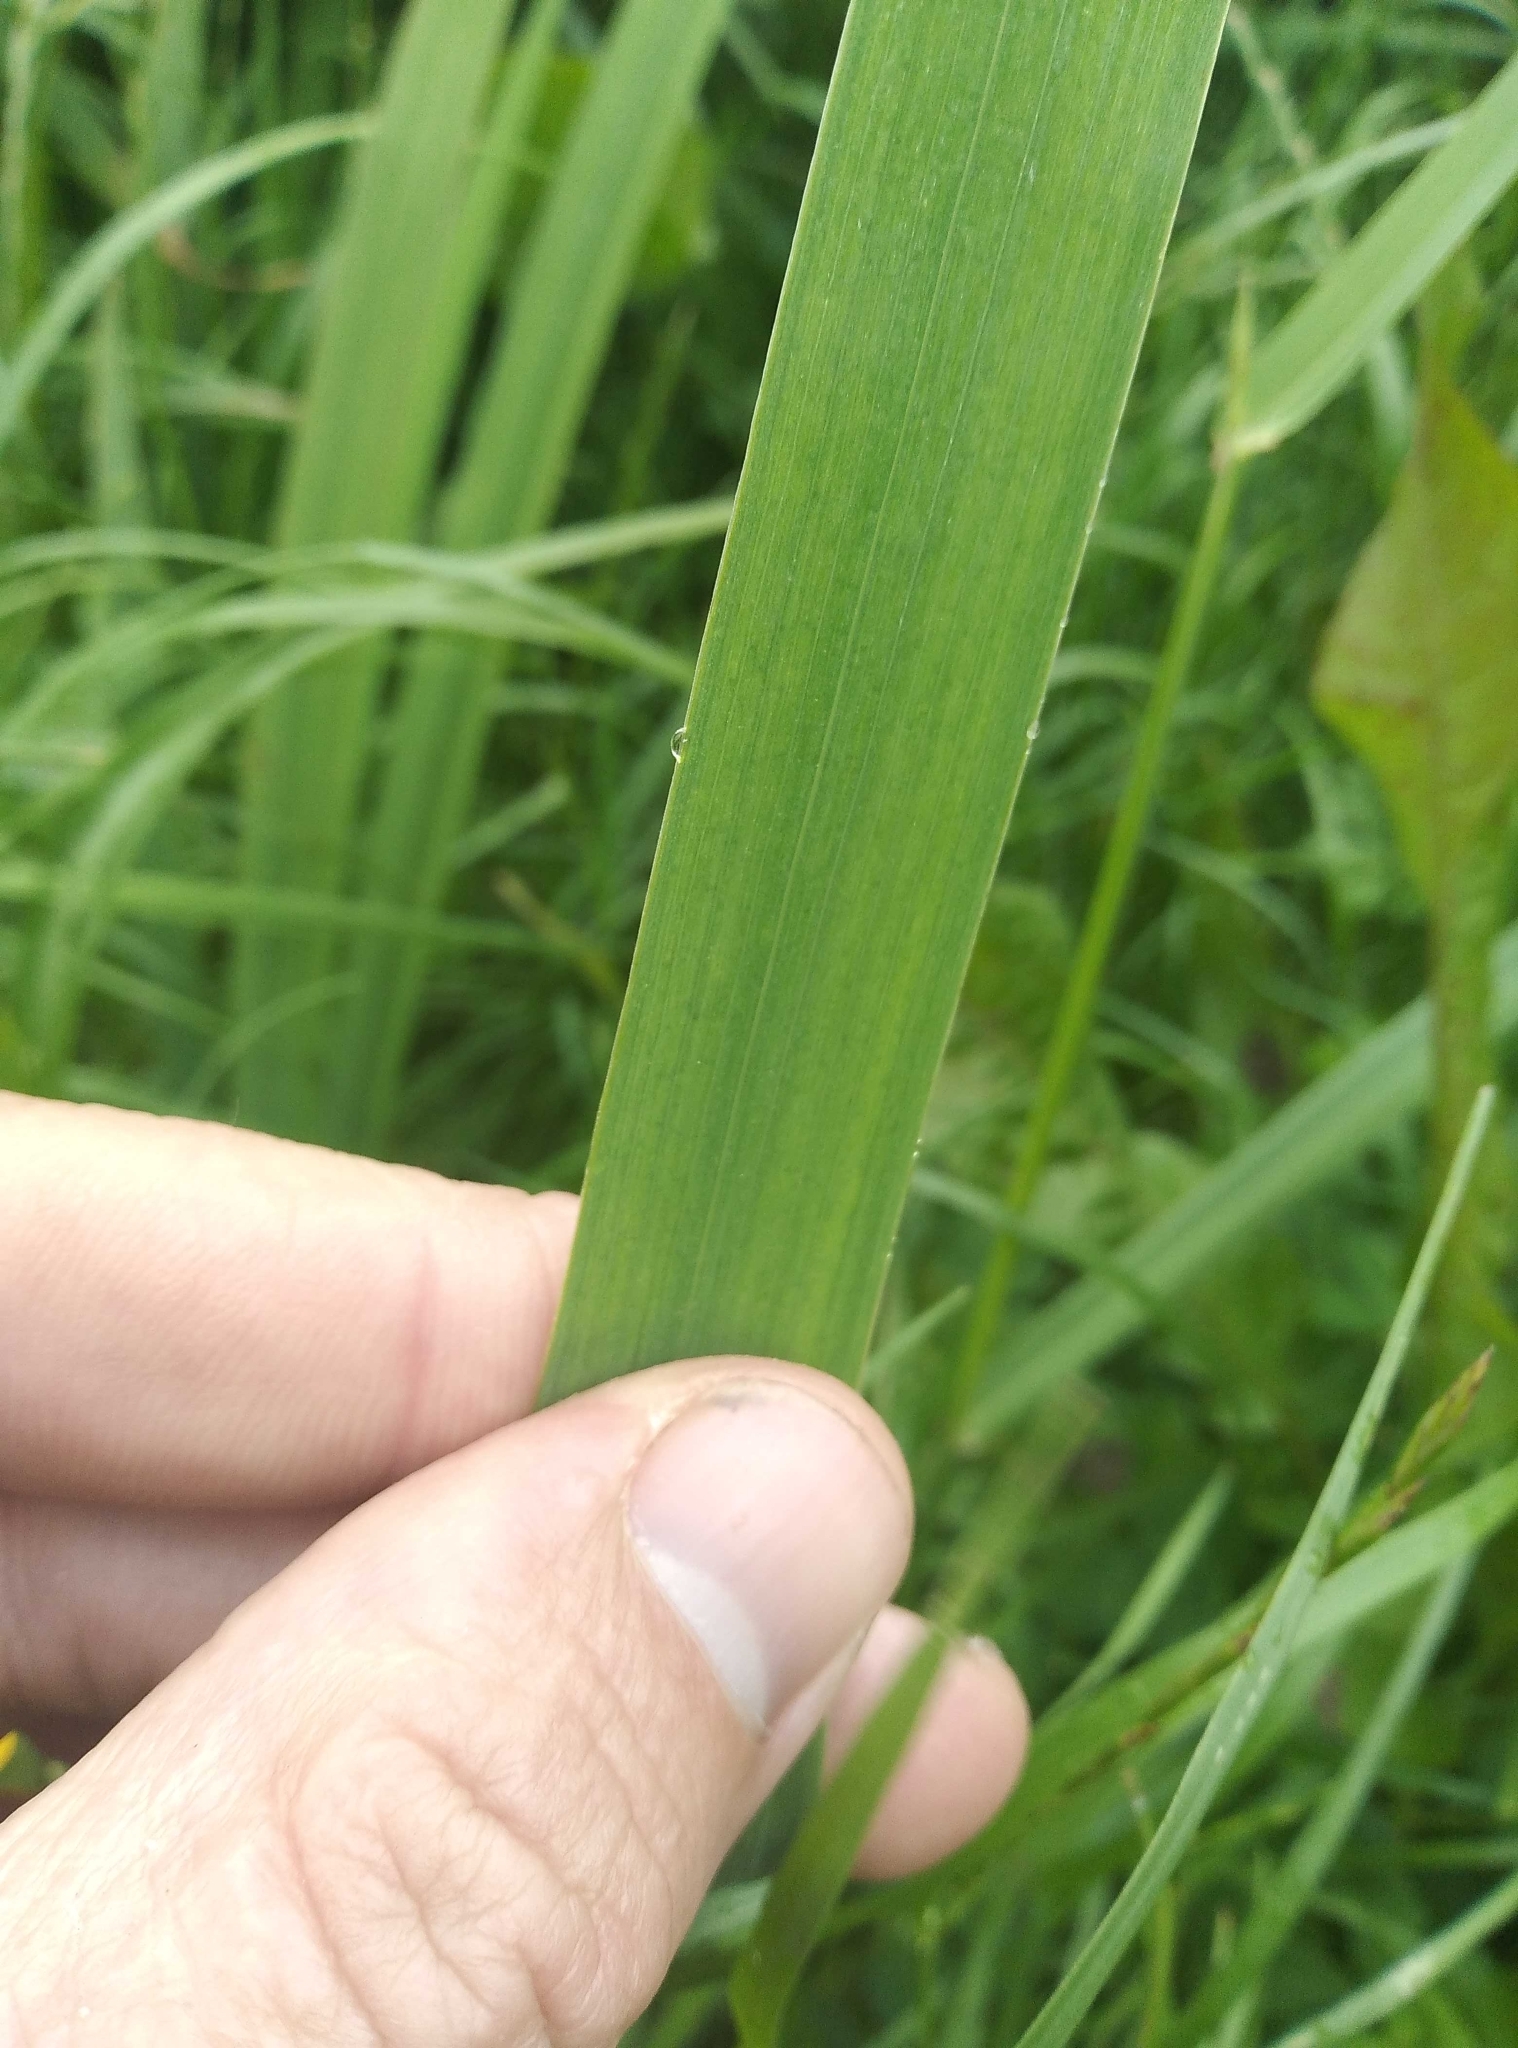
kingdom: Plantae
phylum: Tracheophyta
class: Liliopsida
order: Asparagales
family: Iridaceae
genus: Iris
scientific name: Iris pseudacorus
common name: Yellow flag
